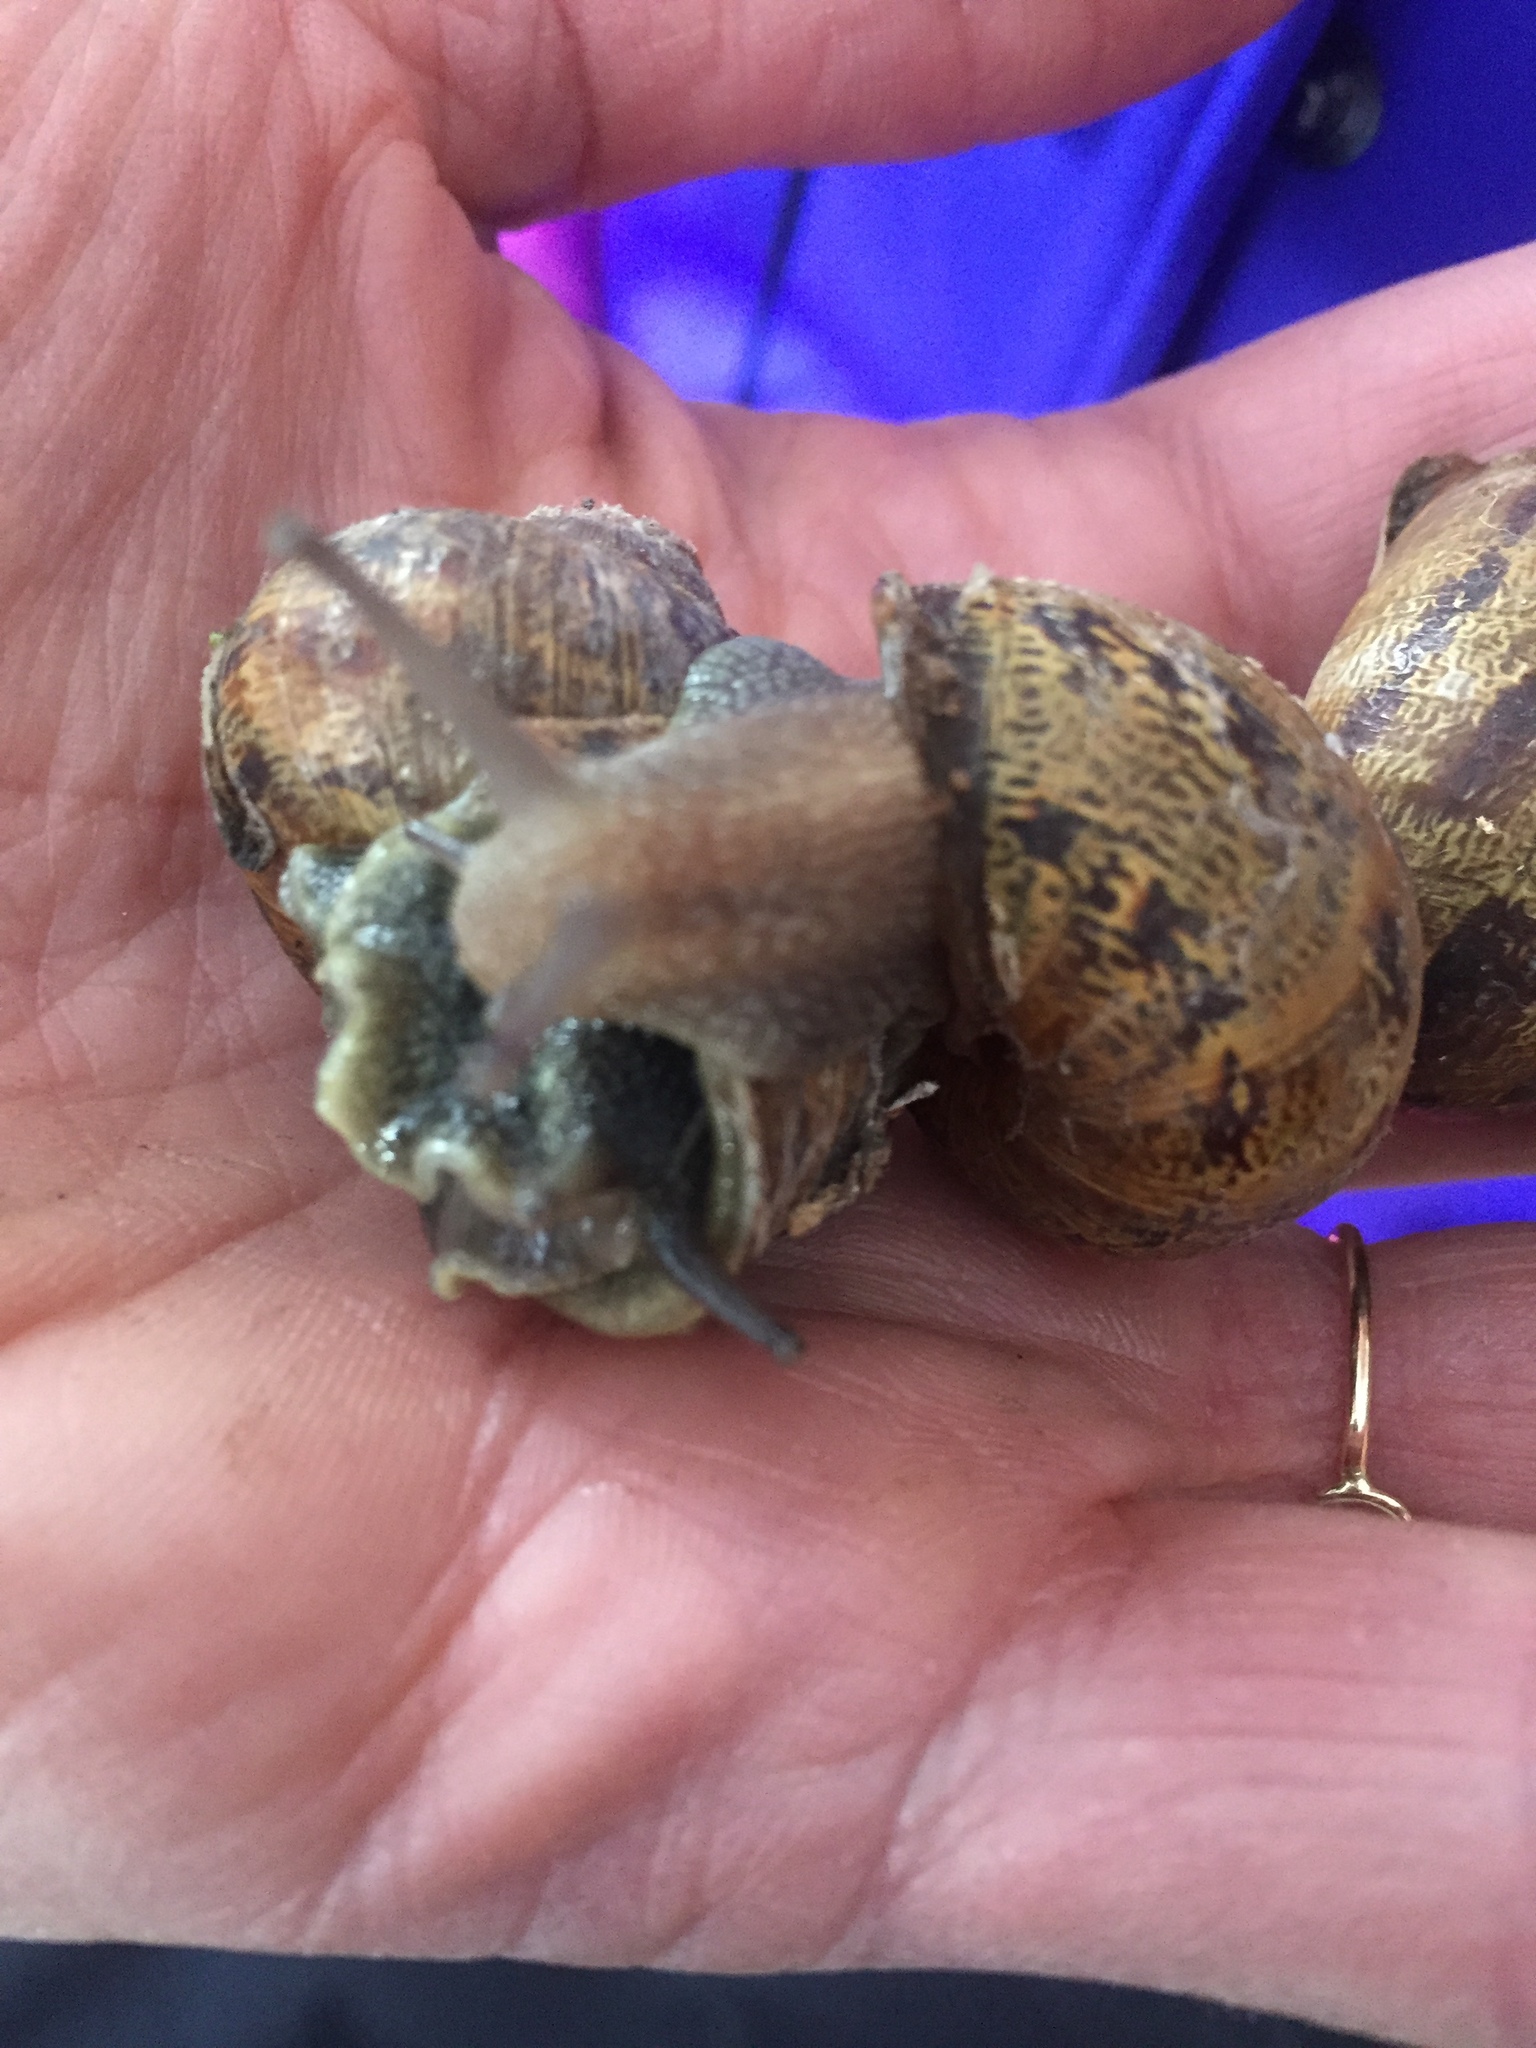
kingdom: Animalia
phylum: Mollusca
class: Gastropoda
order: Stylommatophora
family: Helicidae
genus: Cornu
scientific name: Cornu aspersum
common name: Brown garden snail
